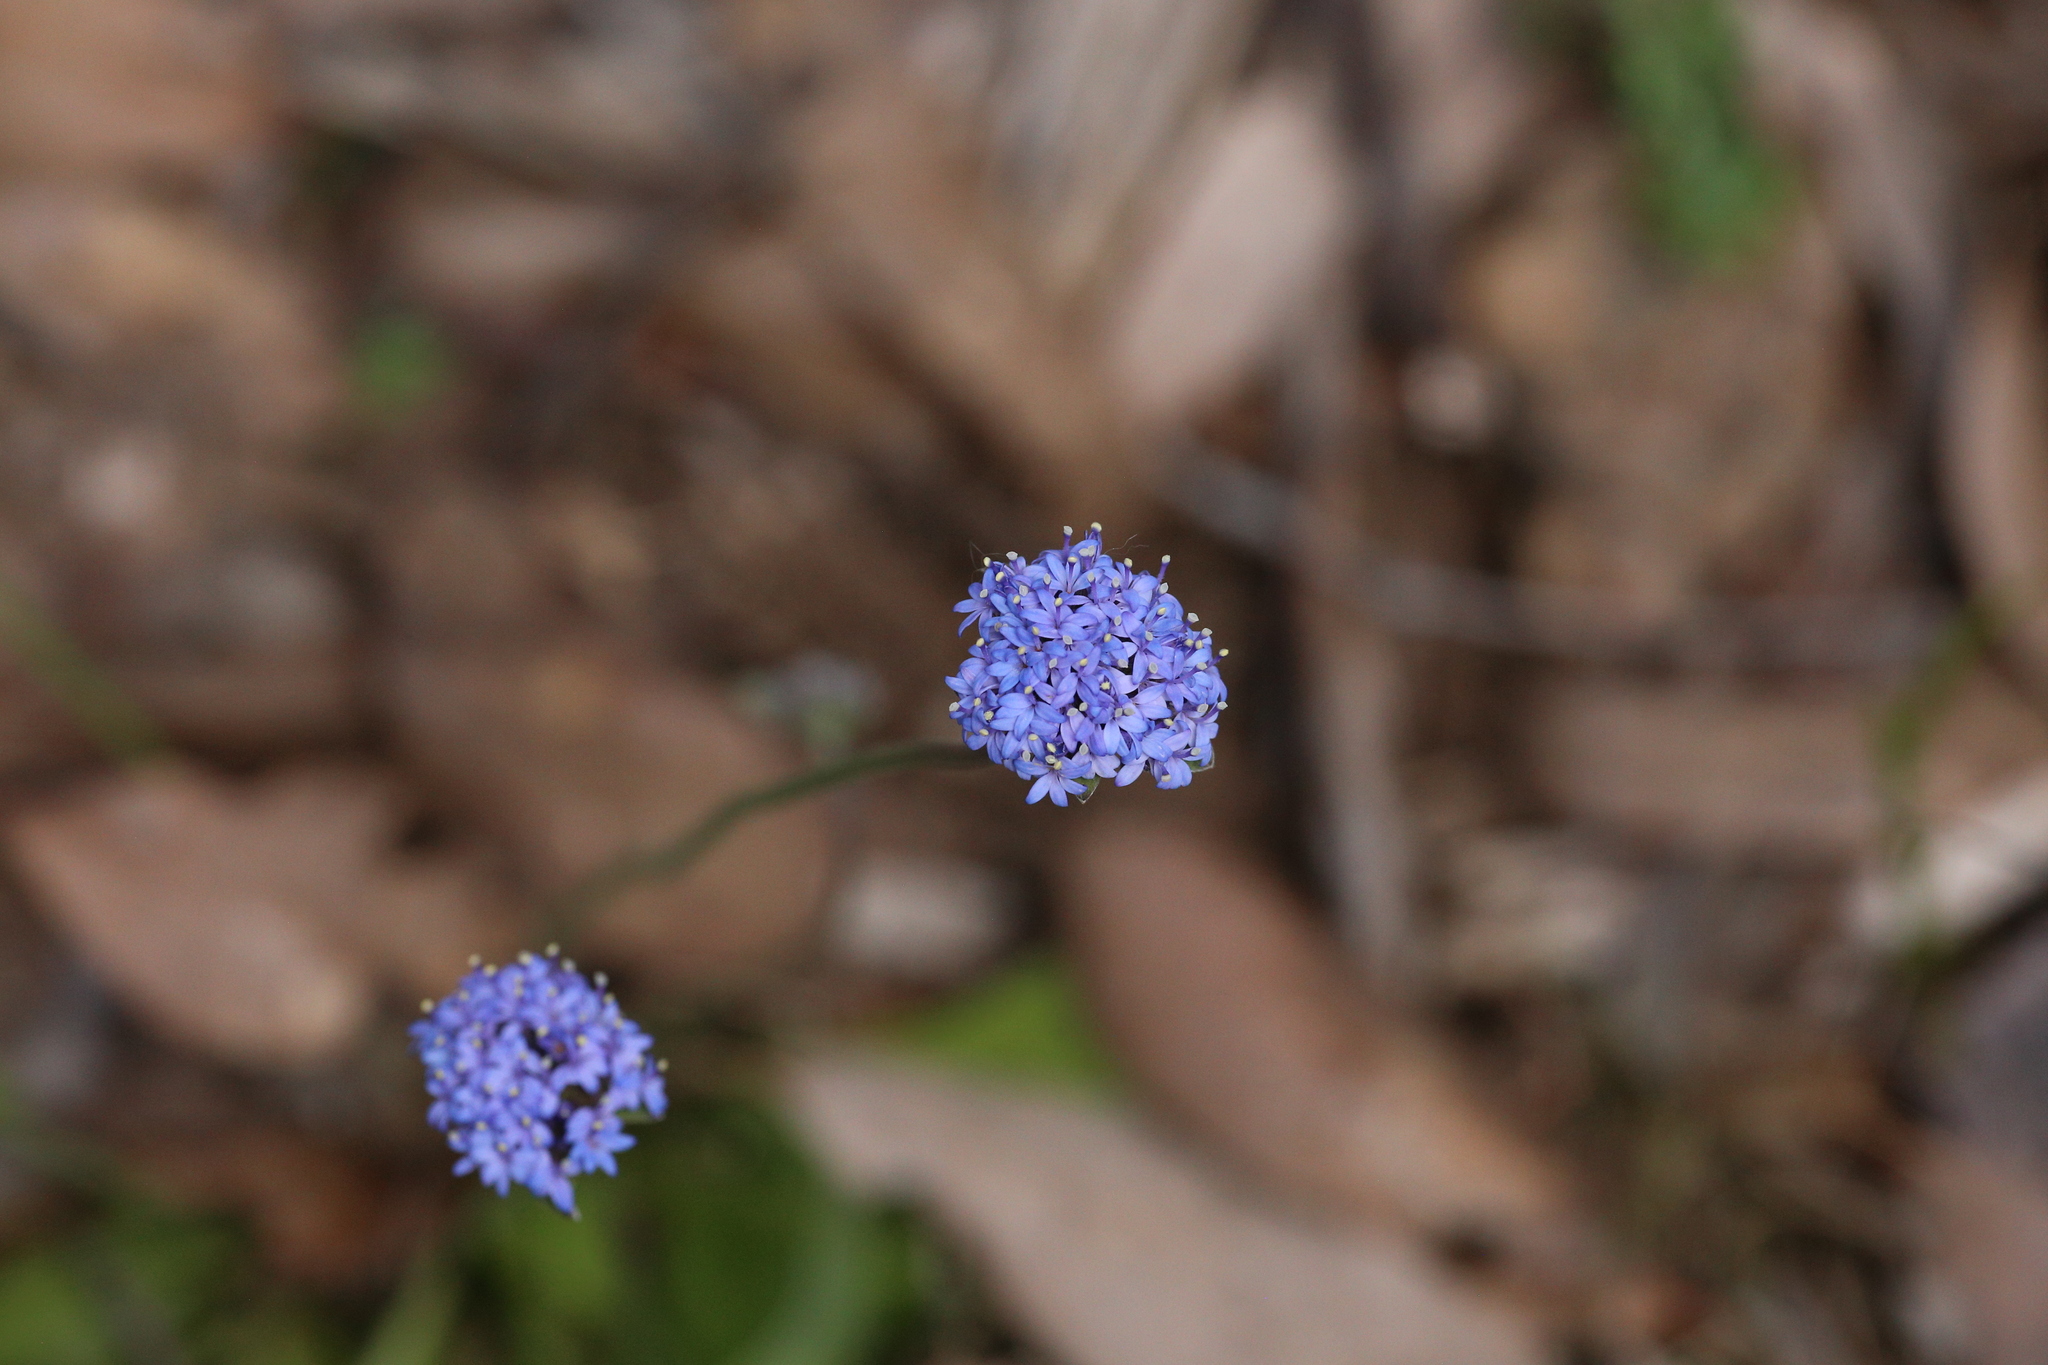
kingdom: Plantae
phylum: Tracheophyta
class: Magnoliopsida
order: Asterales
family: Goodeniaceae
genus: Brunonia
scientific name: Brunonia australis
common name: Blue pincushion
